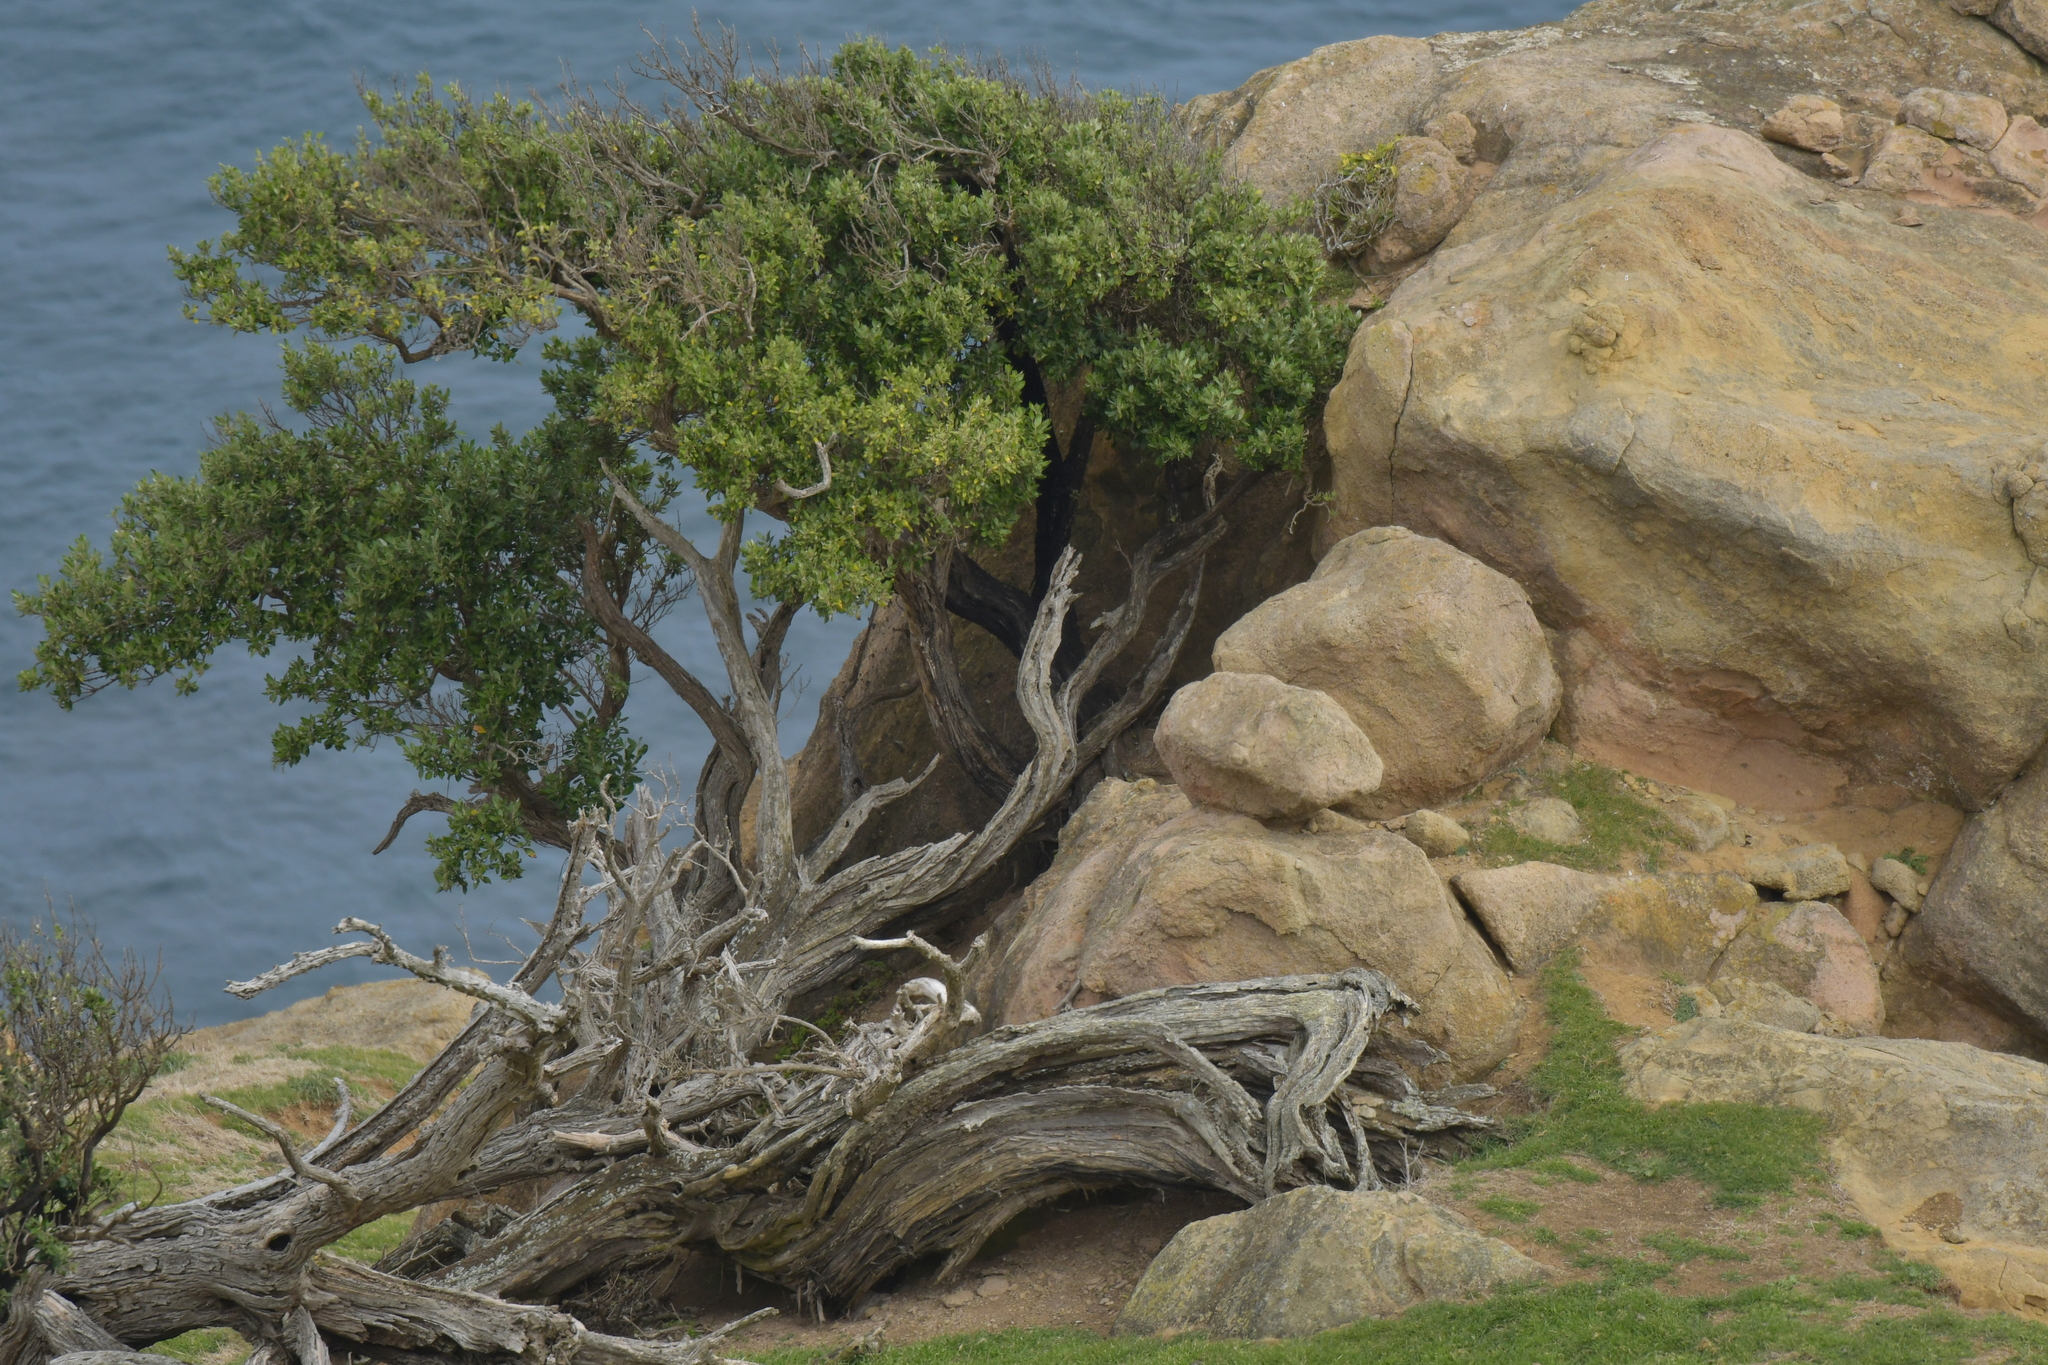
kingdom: Plantae
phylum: Tracheophyta
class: Magnoliopsida
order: Asterales
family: Asteraceae
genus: Olearia
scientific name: Olearia traversiorum
